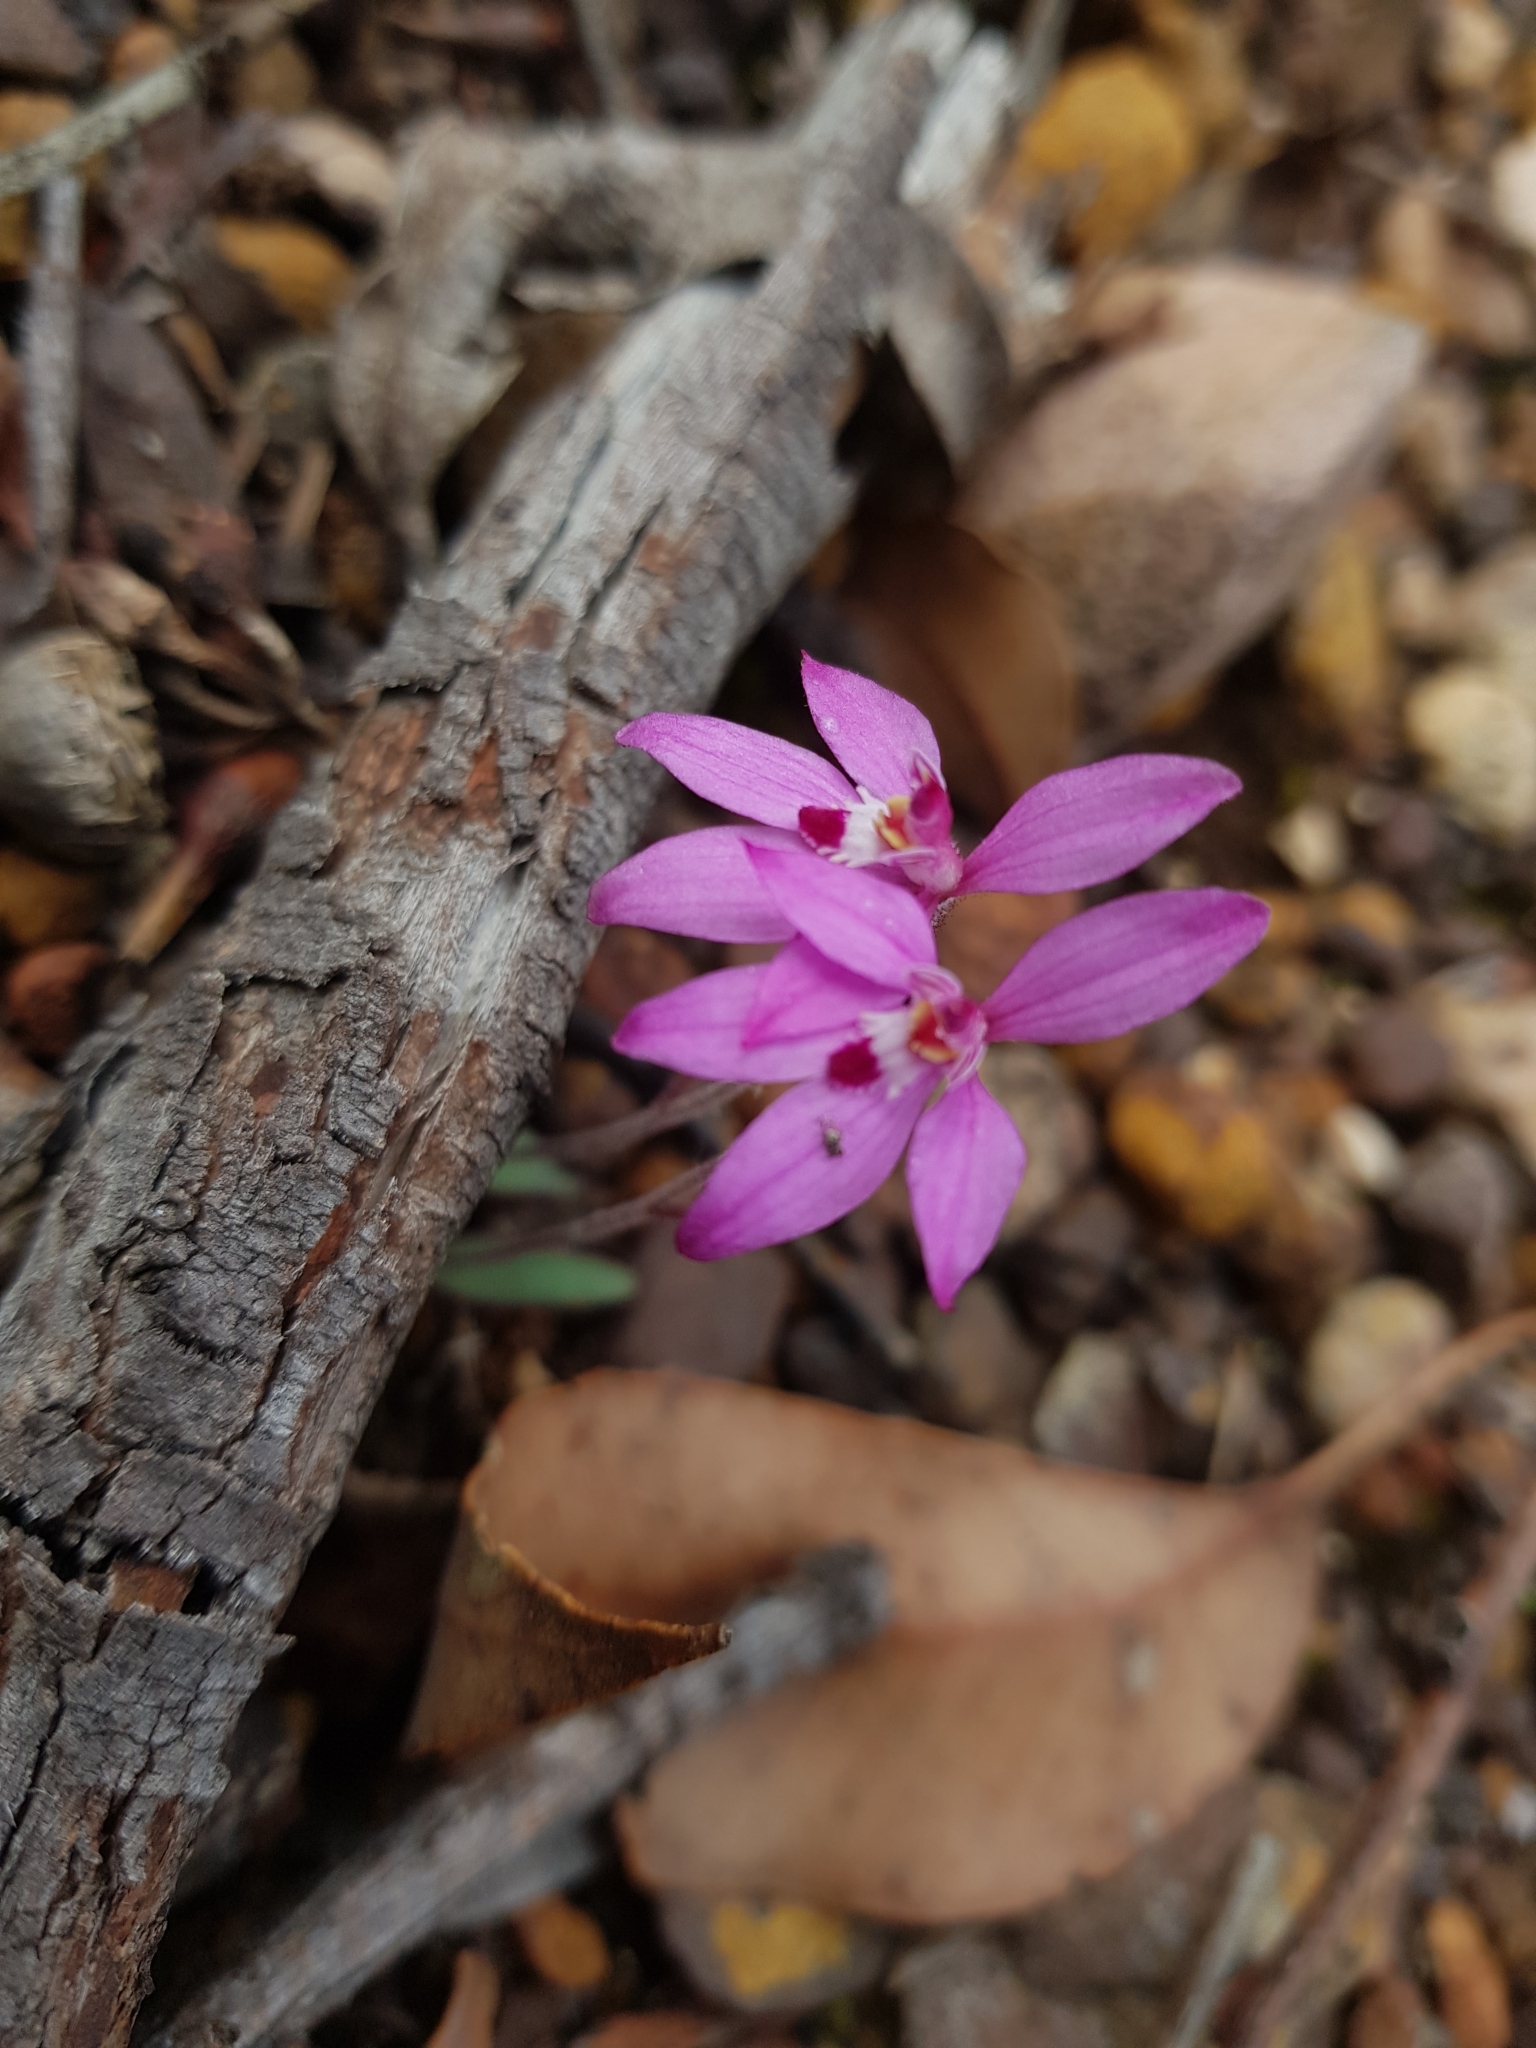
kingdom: Plantae
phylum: Tracheophyta
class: Liliopsida
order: Asparagales
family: Orchidaceae
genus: Caladenia
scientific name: Caladenia reptans
